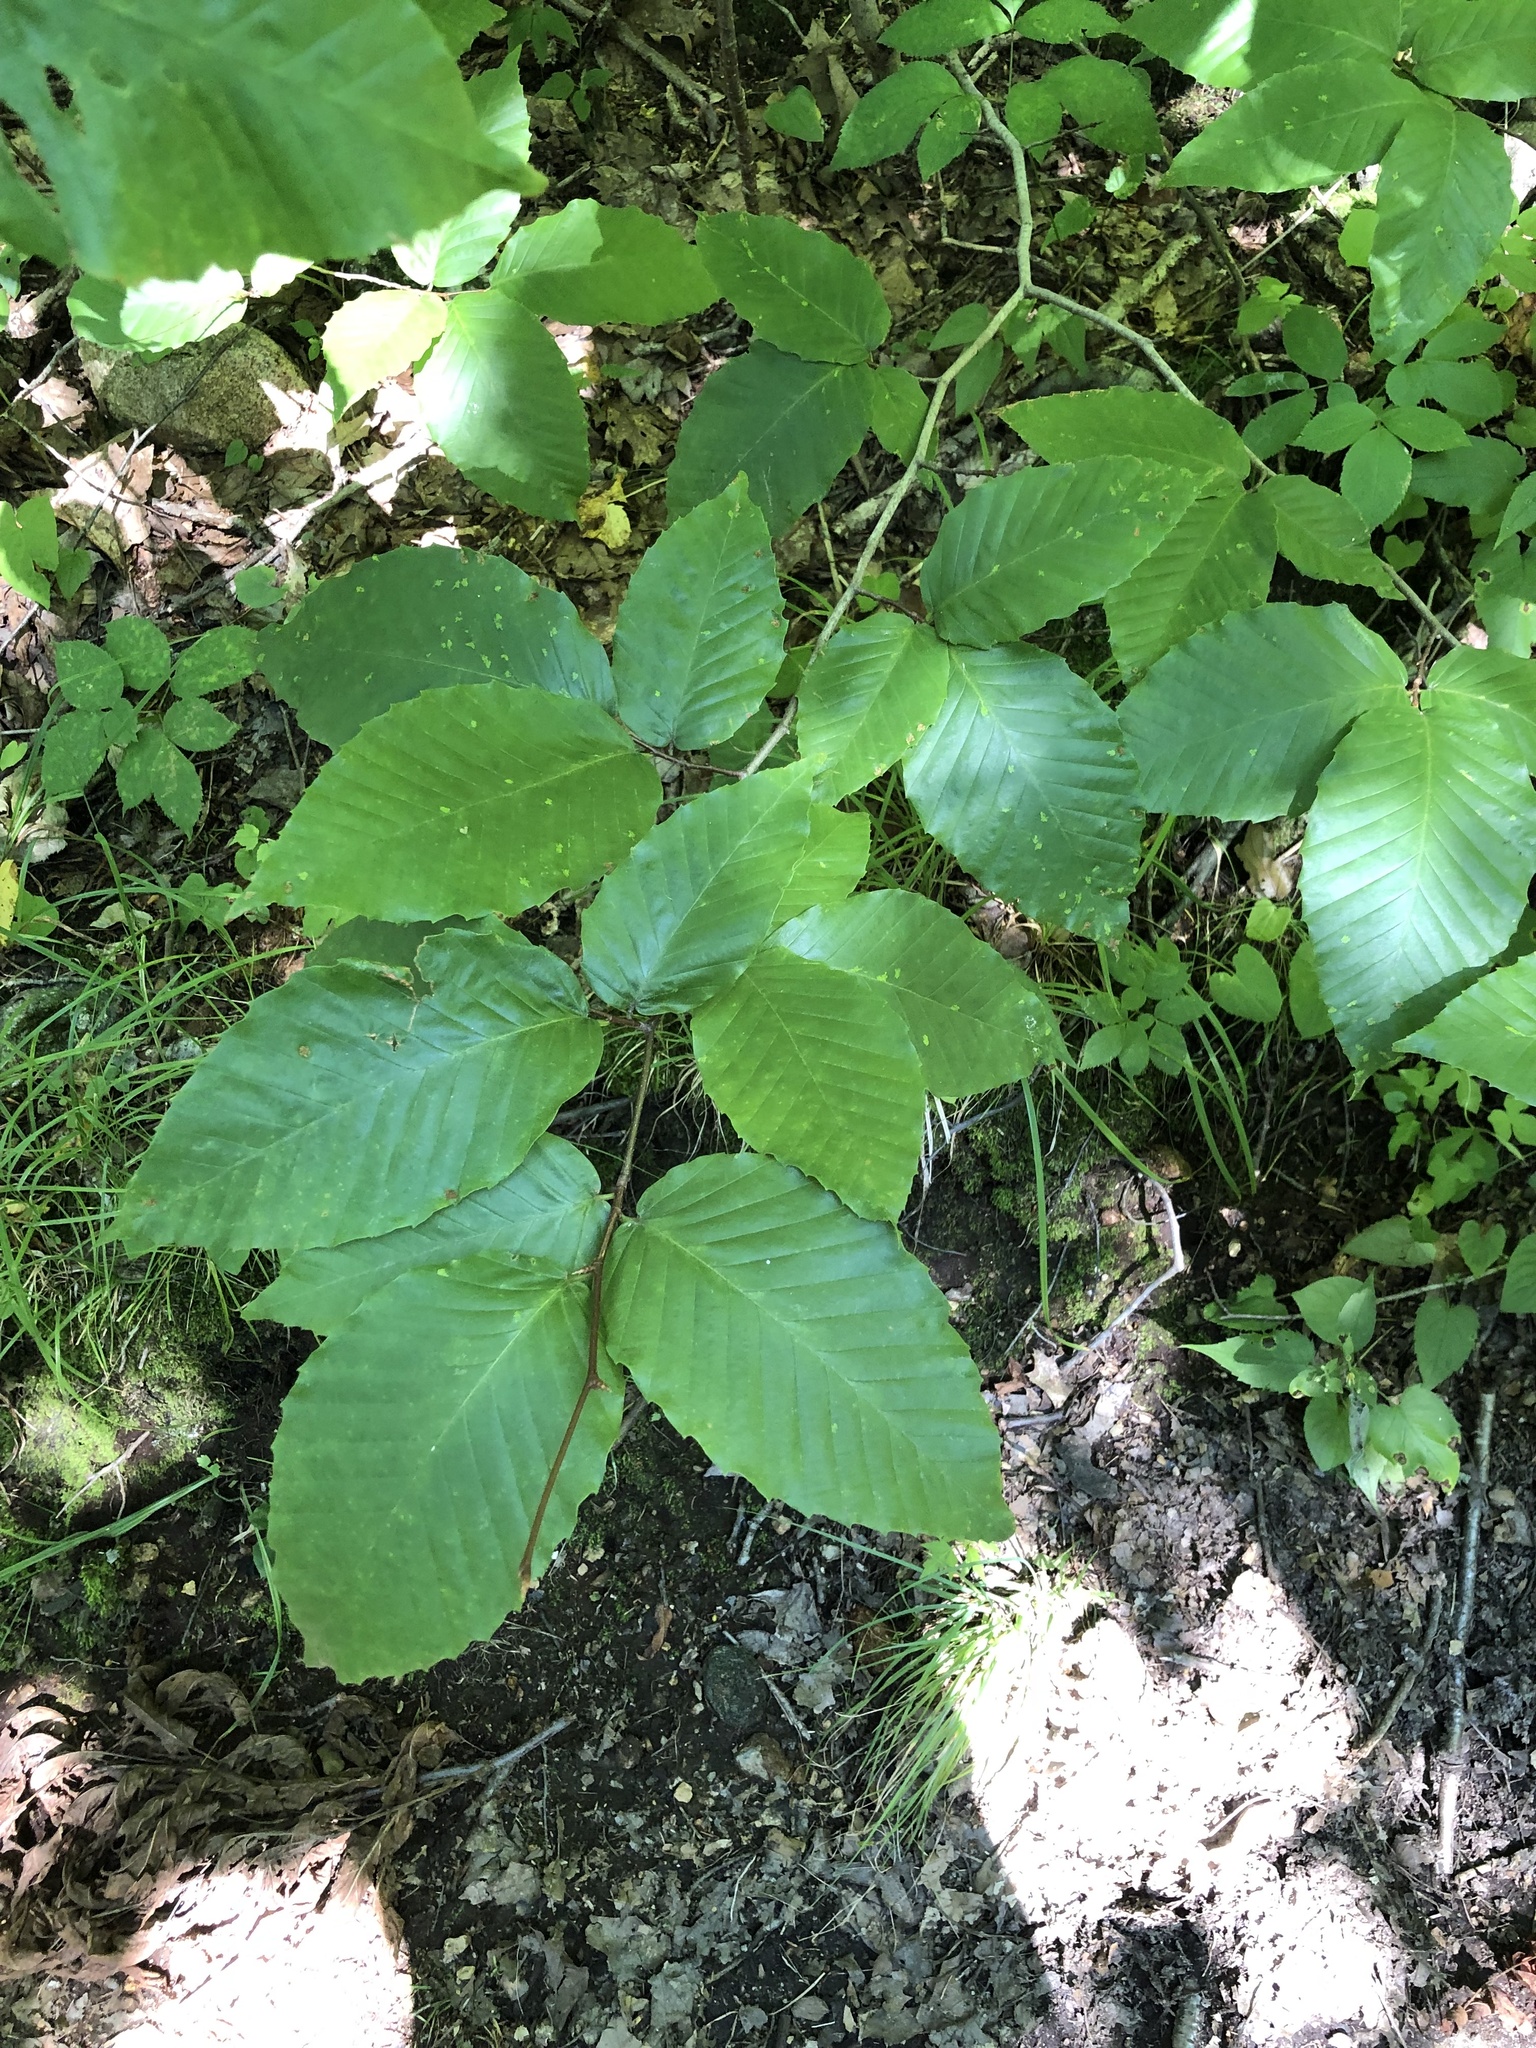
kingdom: Animalia
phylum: Arthropoda
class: Arachnida
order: Trombidiformes
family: Eriophyidae
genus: Acalitus
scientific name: Acalitus
